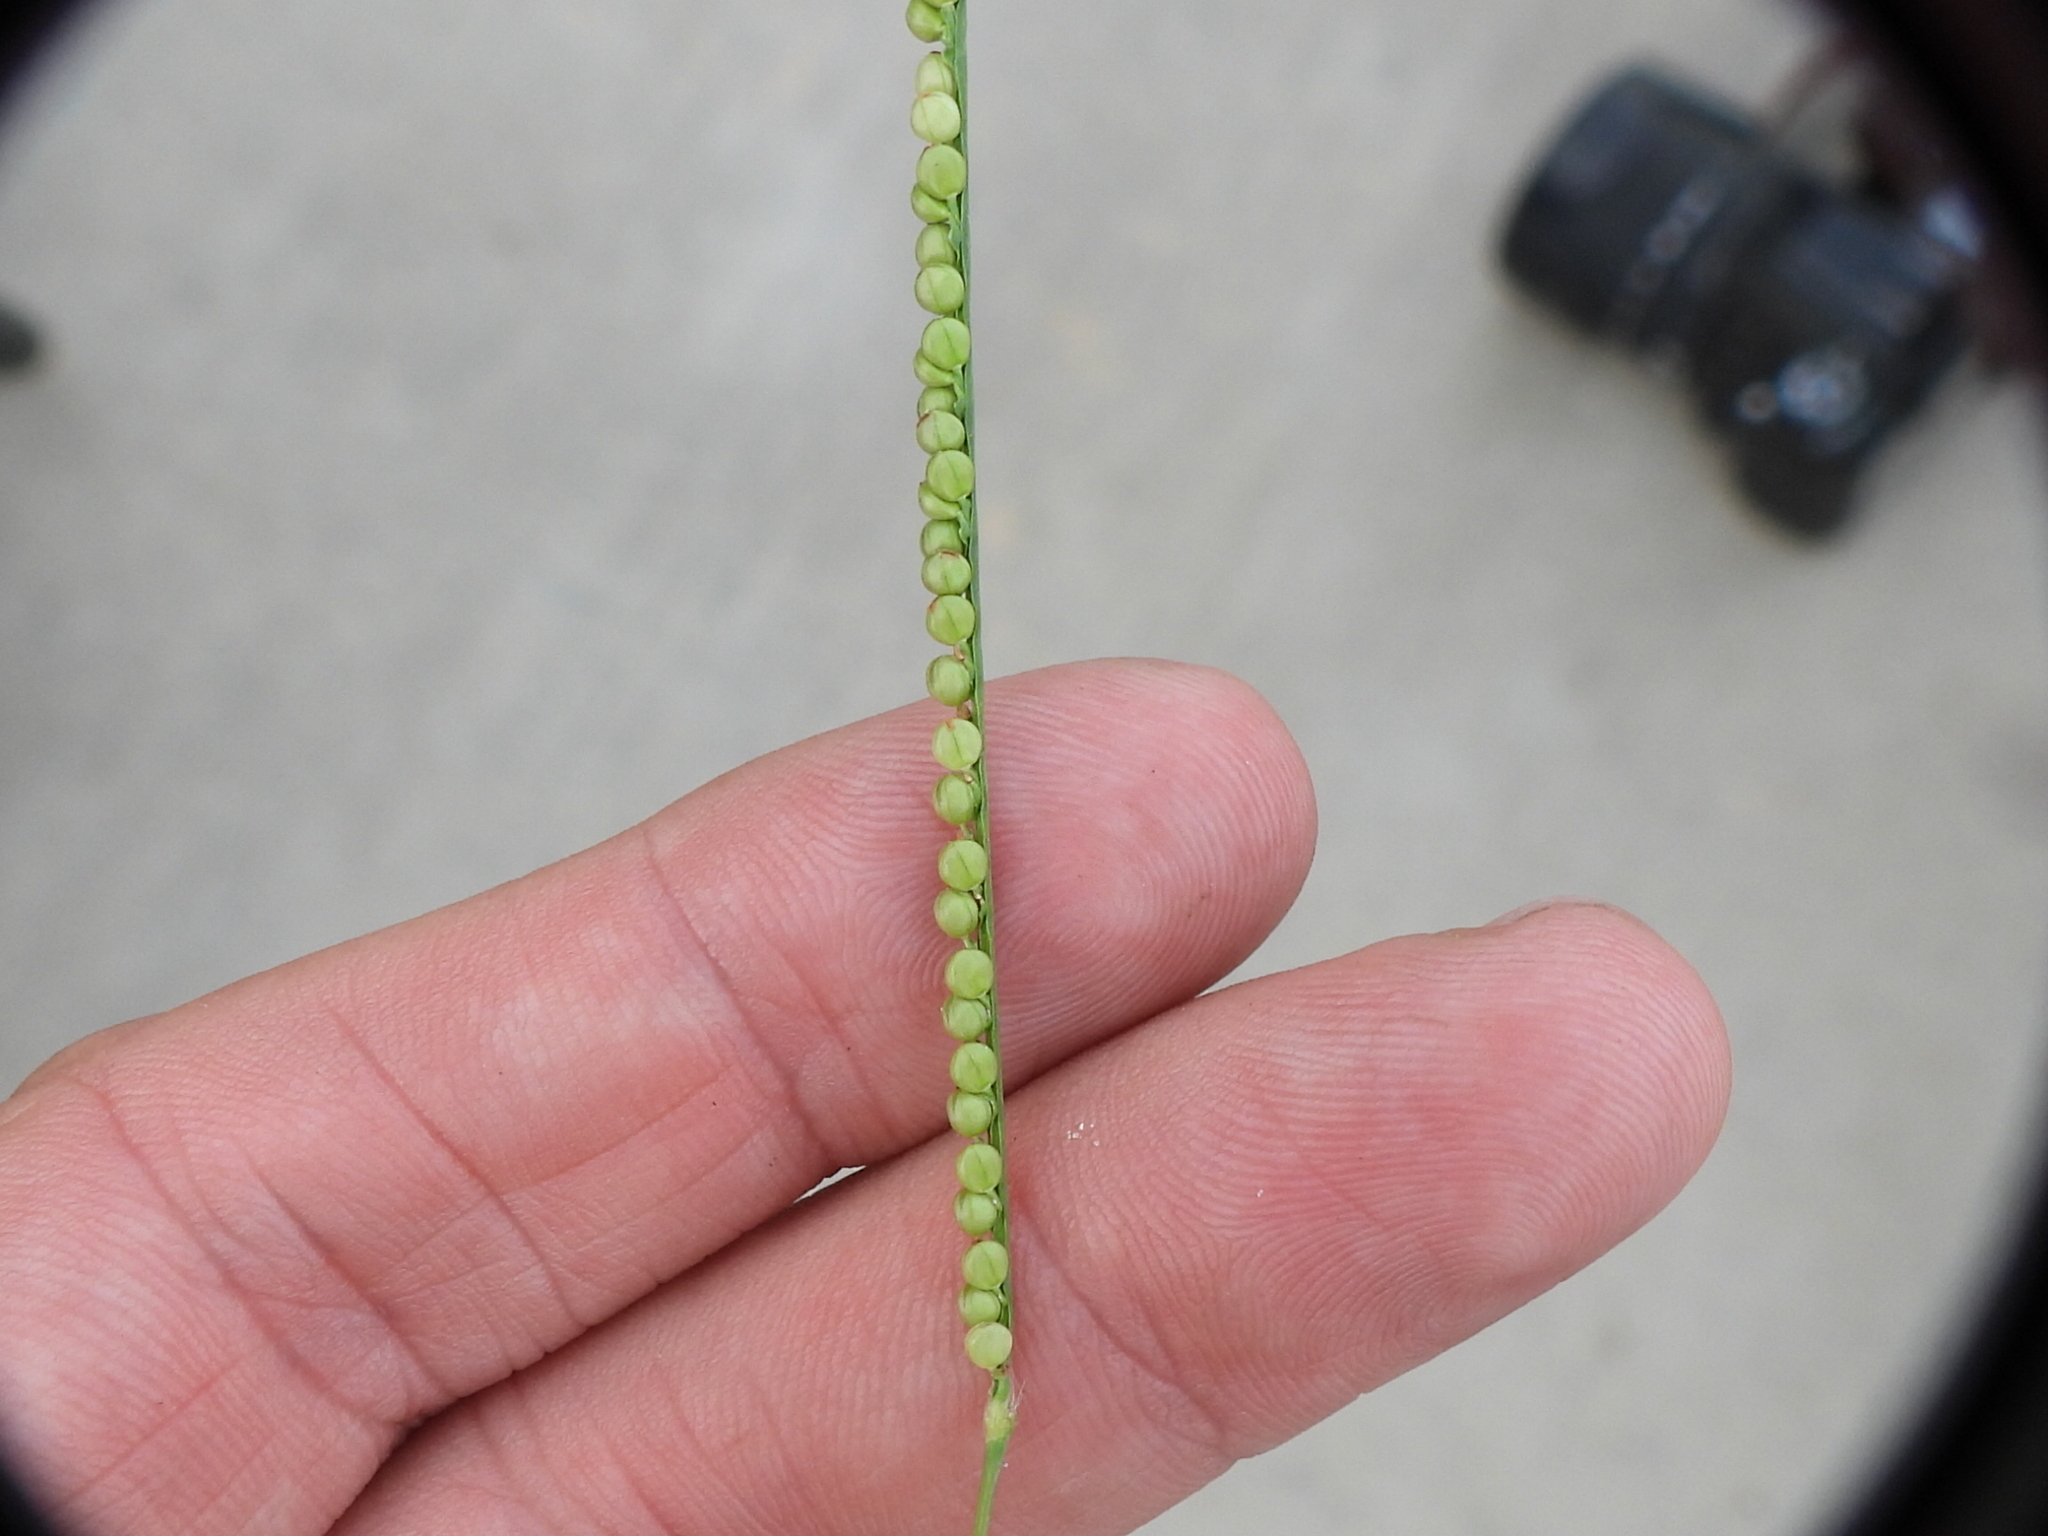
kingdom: Plantae
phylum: Tracheophyta
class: Liliopsida
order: Poales
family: Poaceae
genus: Paspalum
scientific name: Paspalum setaceum
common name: Slender paspalum
